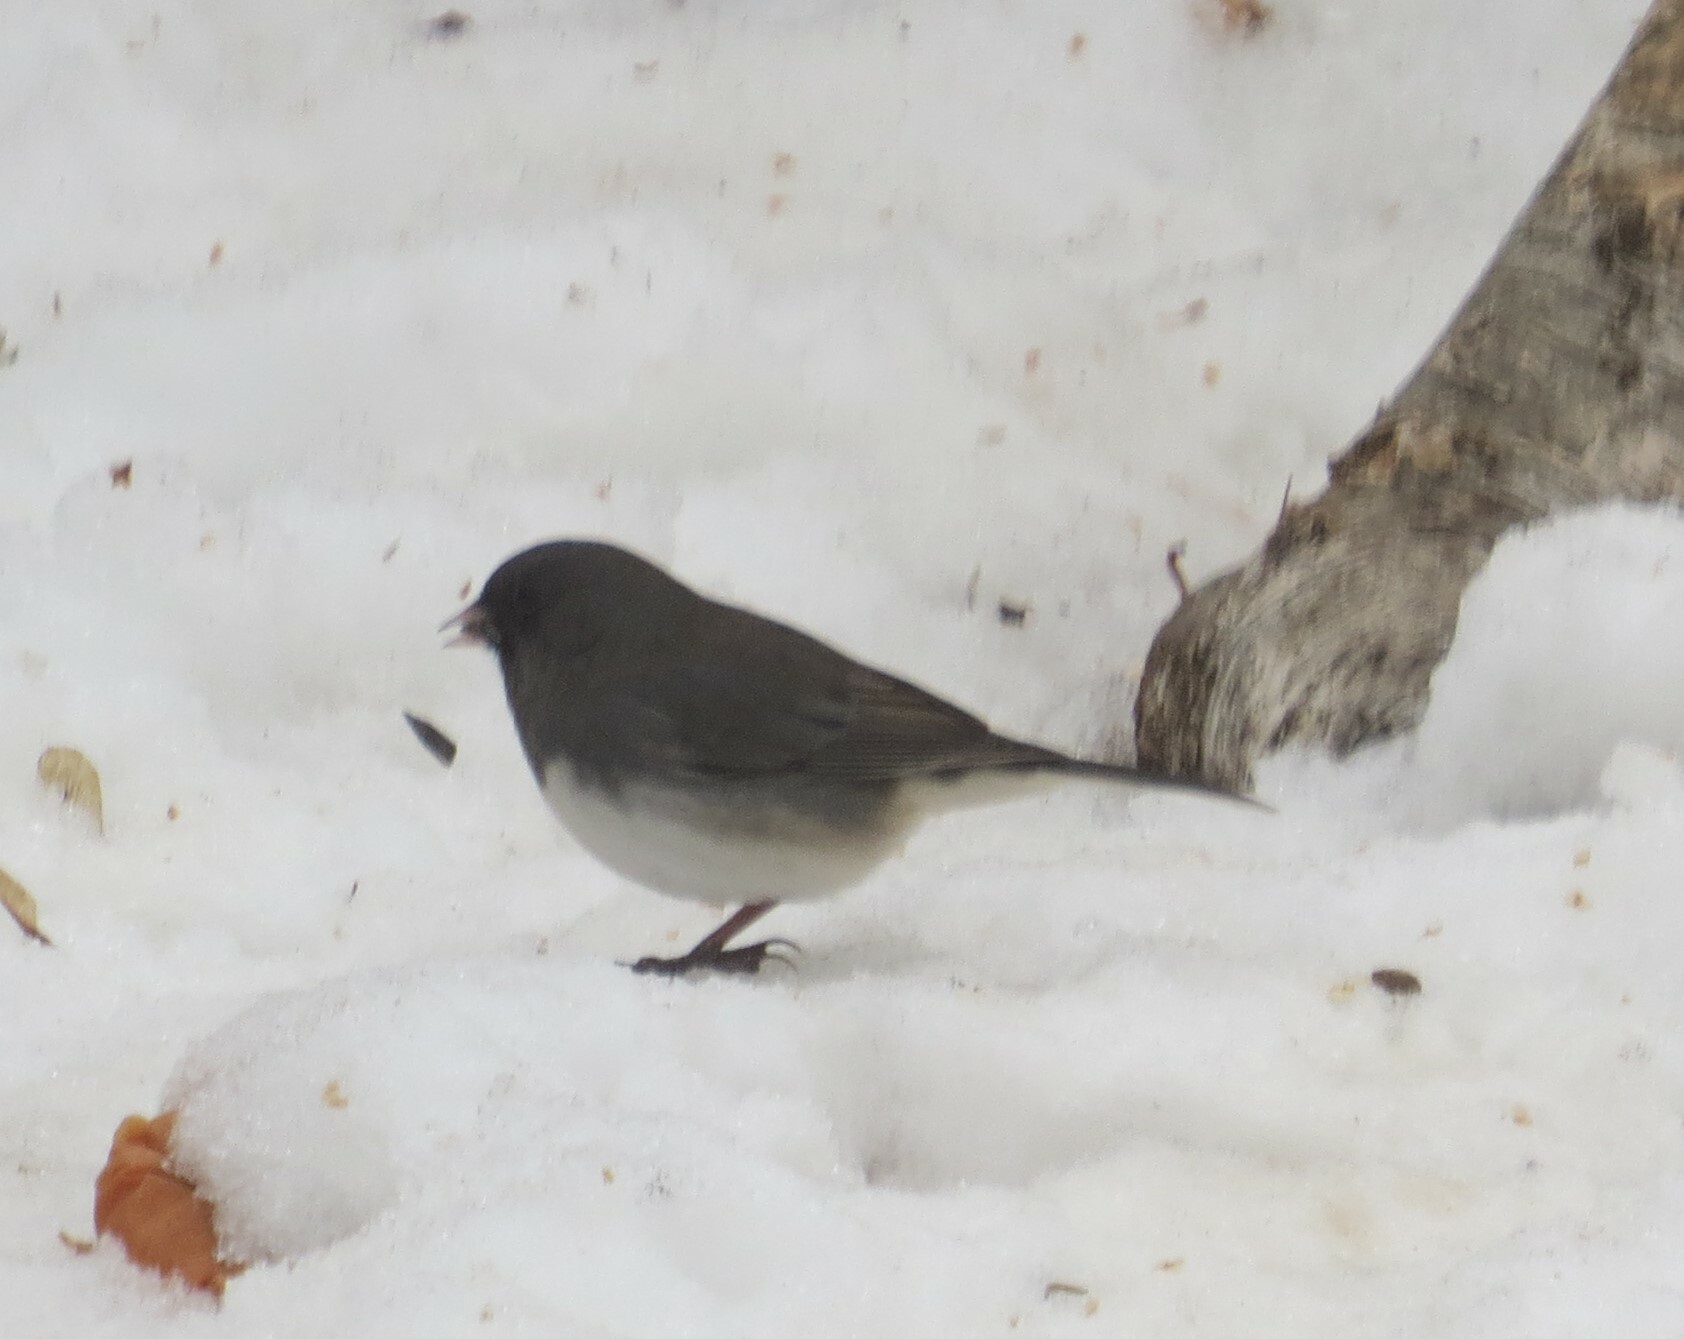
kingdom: Animalia
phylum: Chordata
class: Aves
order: Passeriformes
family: Passerellidae
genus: Junco
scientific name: Junco hyemalis
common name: Dark-eyed junco
